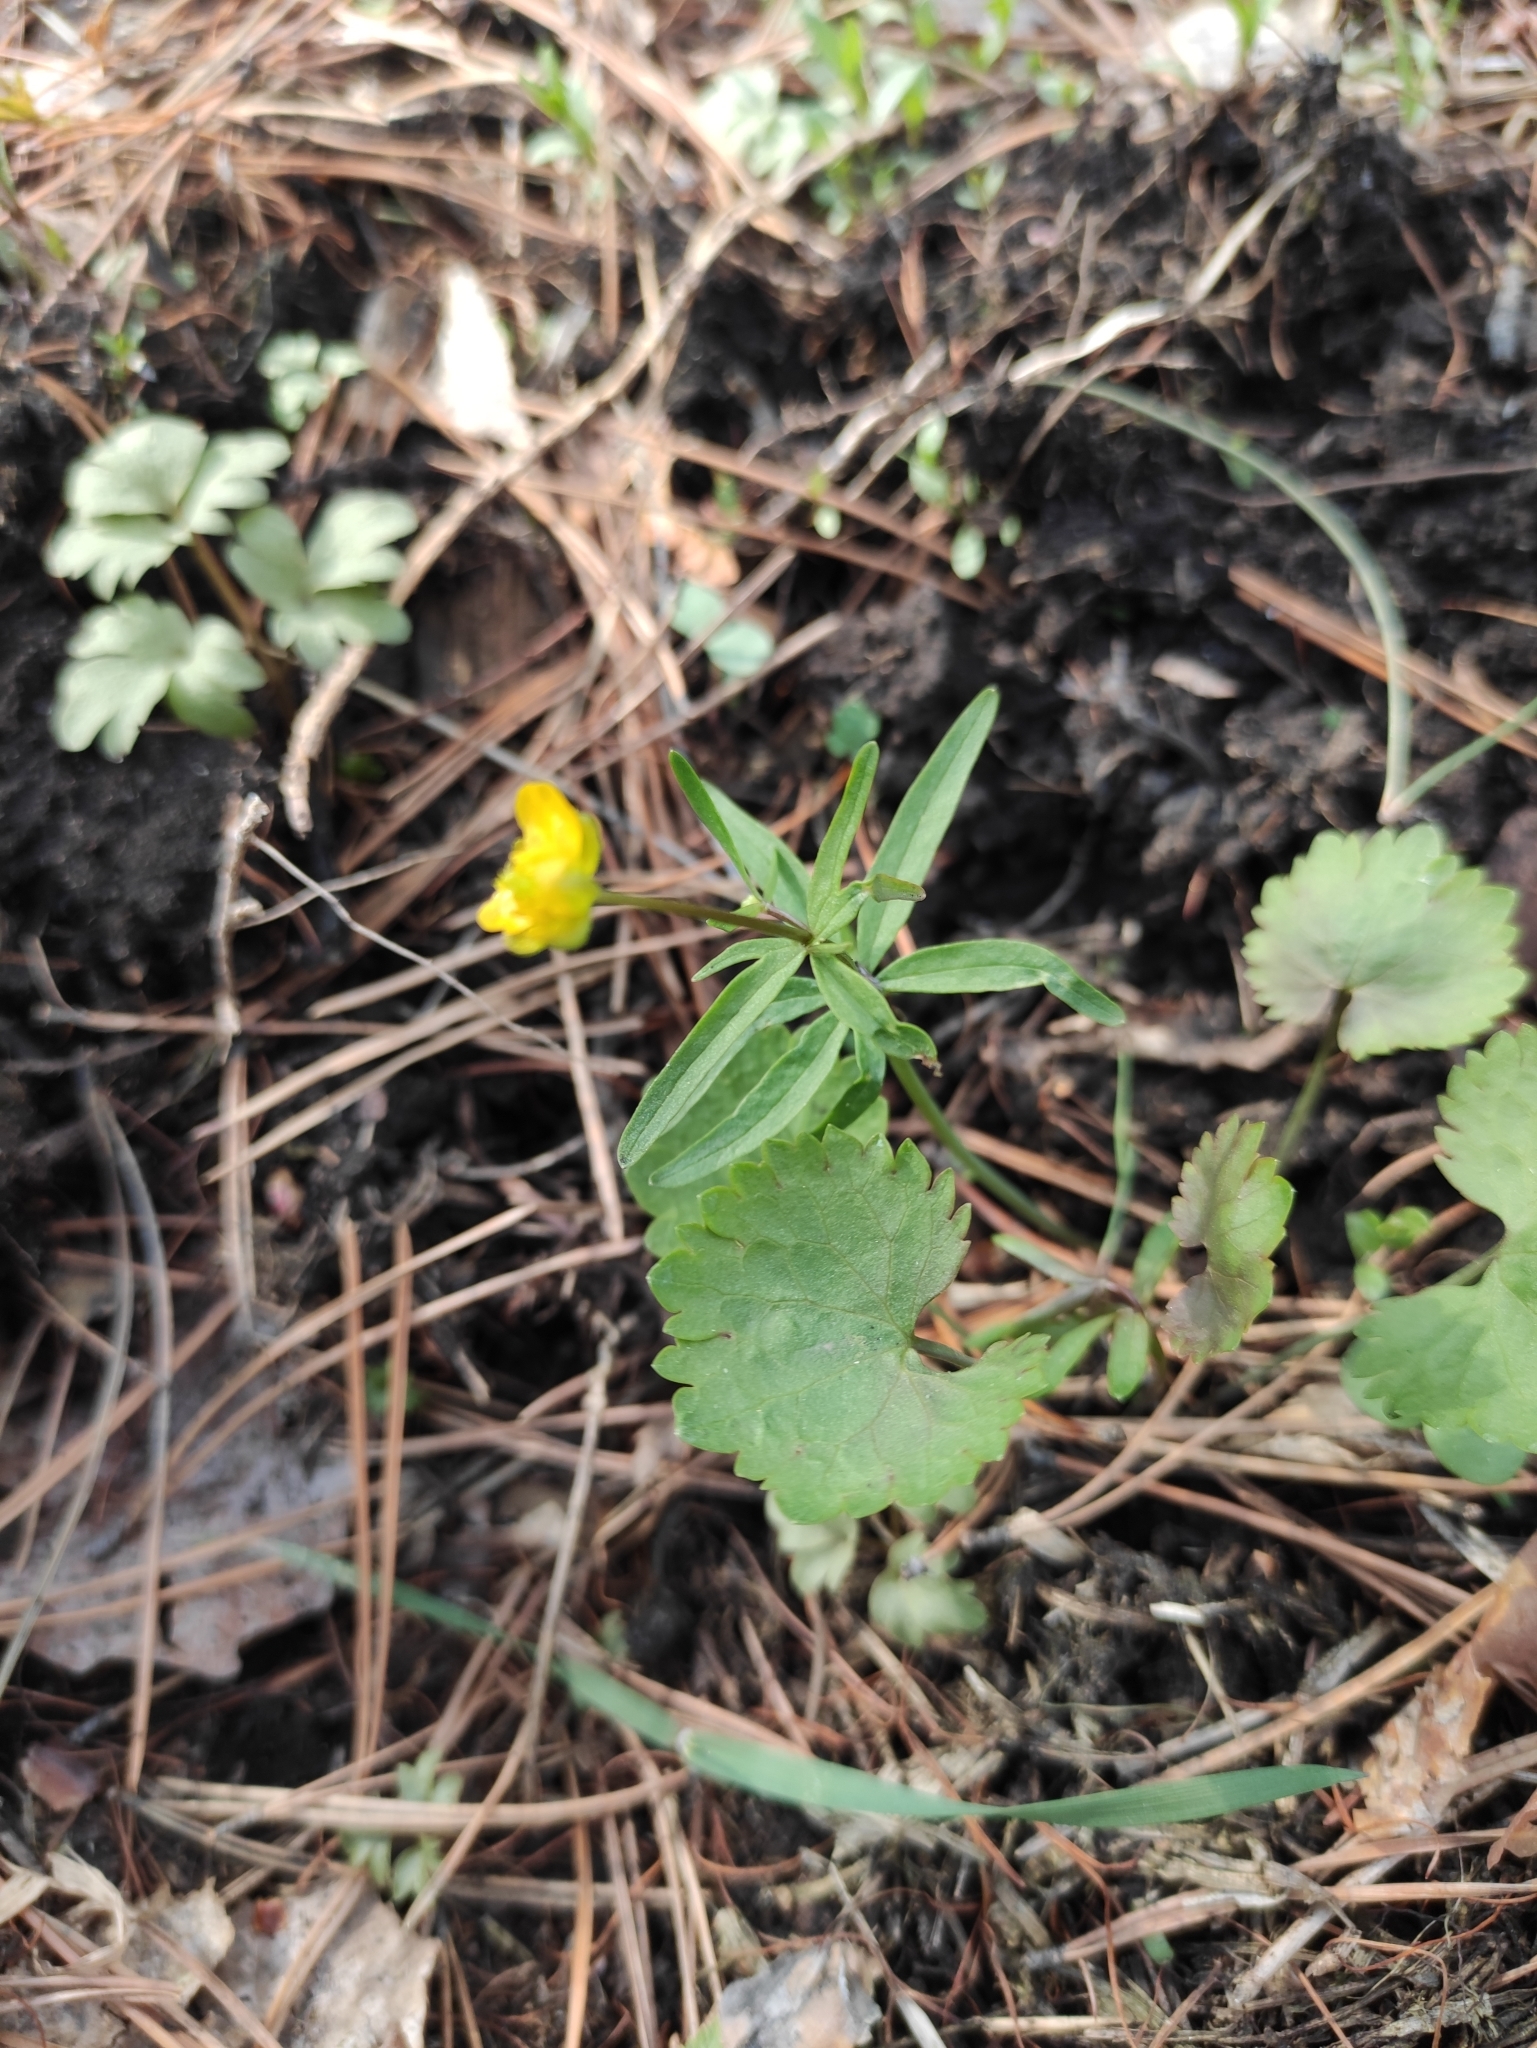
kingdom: Plantae
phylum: Tracheophyta
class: Magnoliopsida
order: Ranunculales
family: Ranunculaceae
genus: Ranunculus
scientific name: Ranunculus monophyllus
